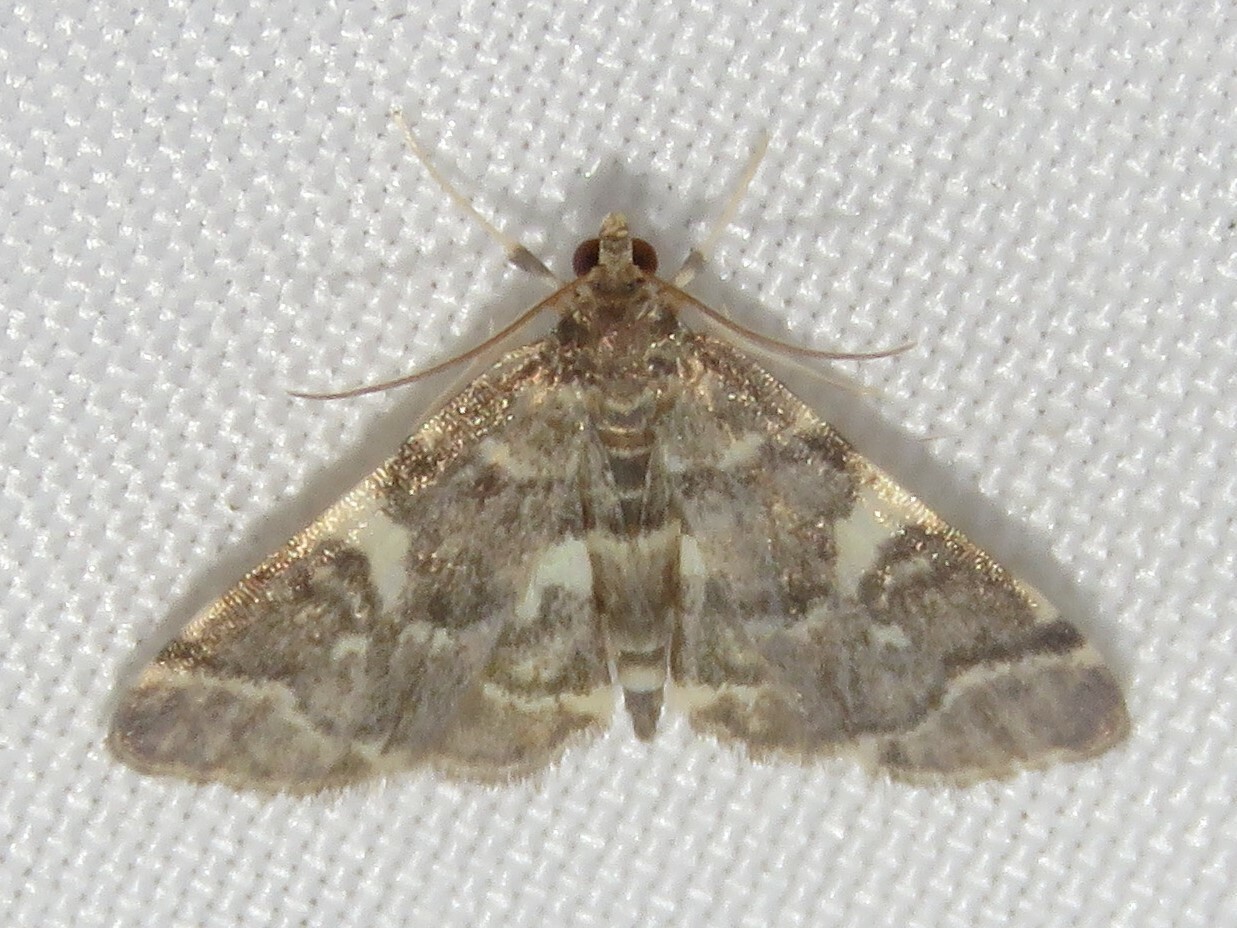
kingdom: Animalia
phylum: Arthropoda
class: Insecta
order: Lepidoptera
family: Crambidae
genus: Anageshna
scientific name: Anageshna primordialis
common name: Yellow-spotted webworm moth
